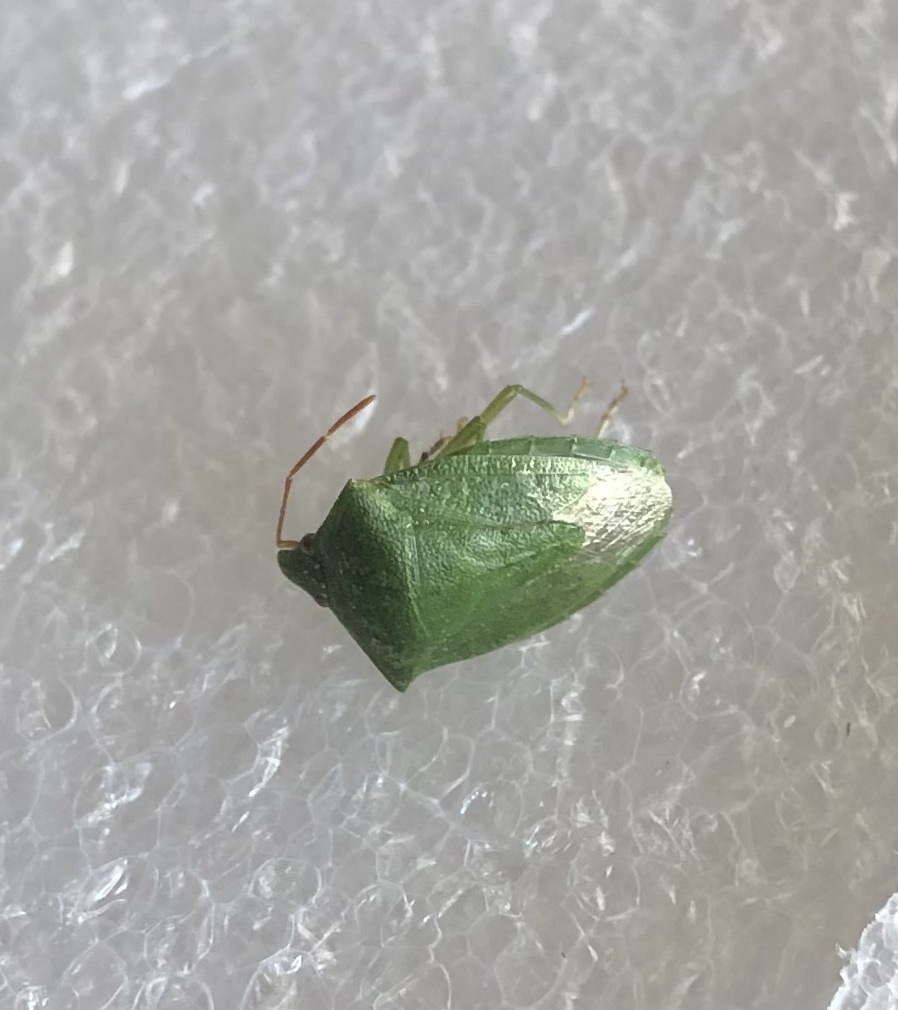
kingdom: Animalia
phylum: Arthropoda
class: Insecta
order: Hemiptera
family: Pentatomidae
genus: Cuspicona
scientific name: Cuspicona simplex
